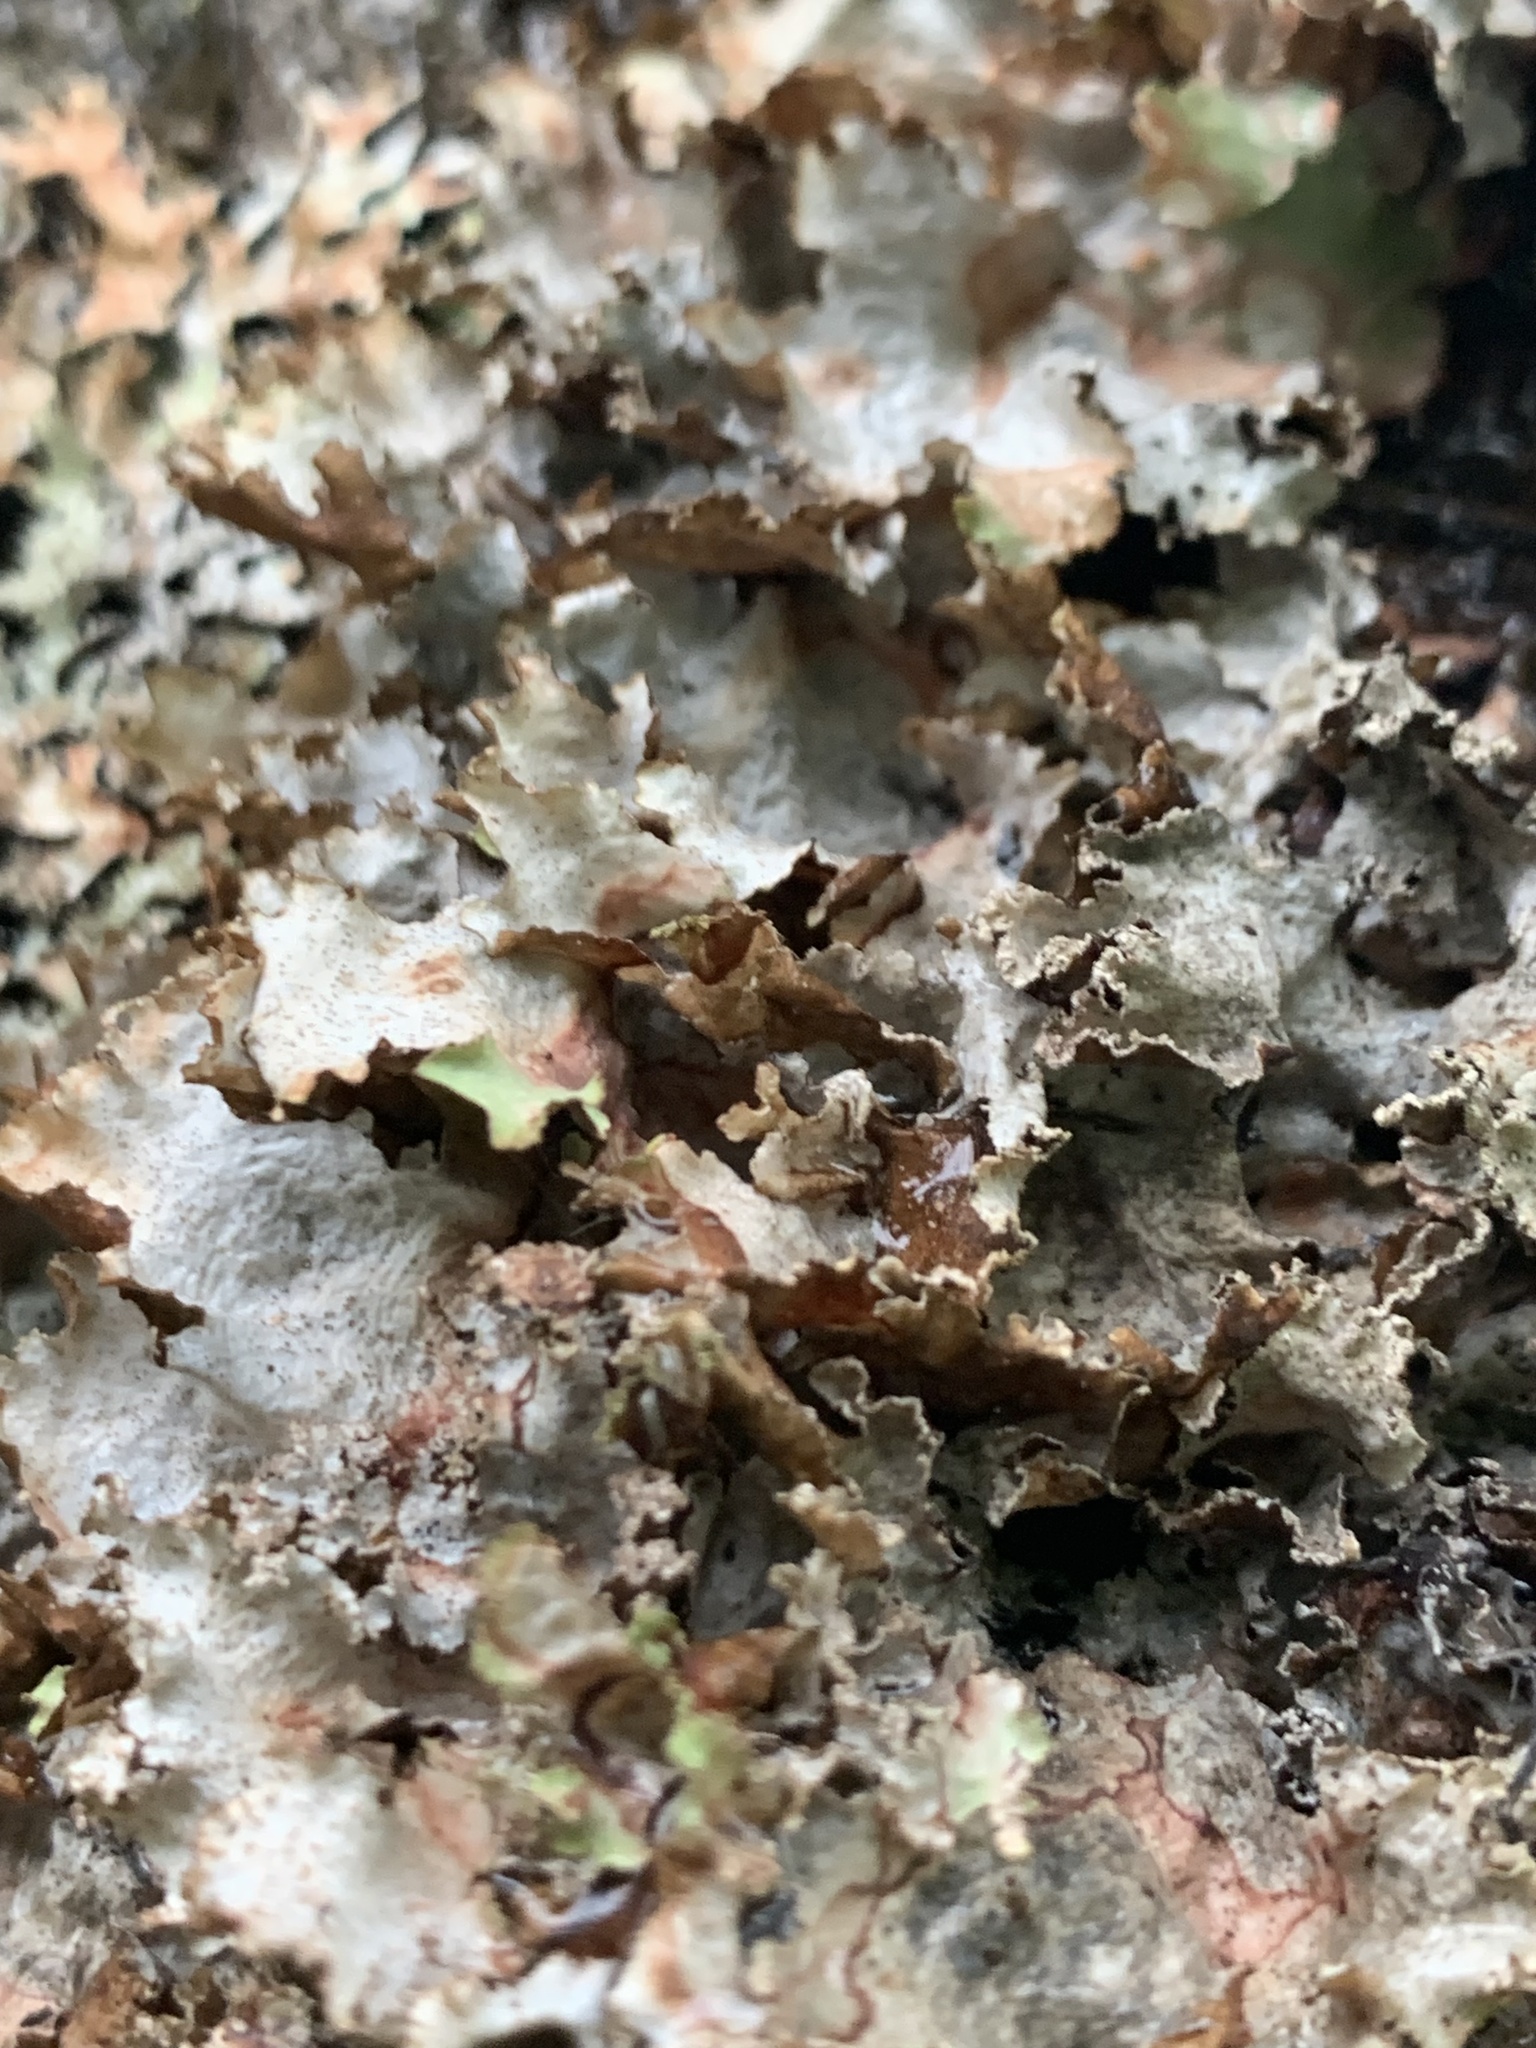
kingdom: Fungi
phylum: Ascomycota
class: Lecanoromycetes
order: Lecanorales
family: Parmeliaceae
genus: Platismatia
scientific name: Platismatia glauca
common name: Varied rag lichen
